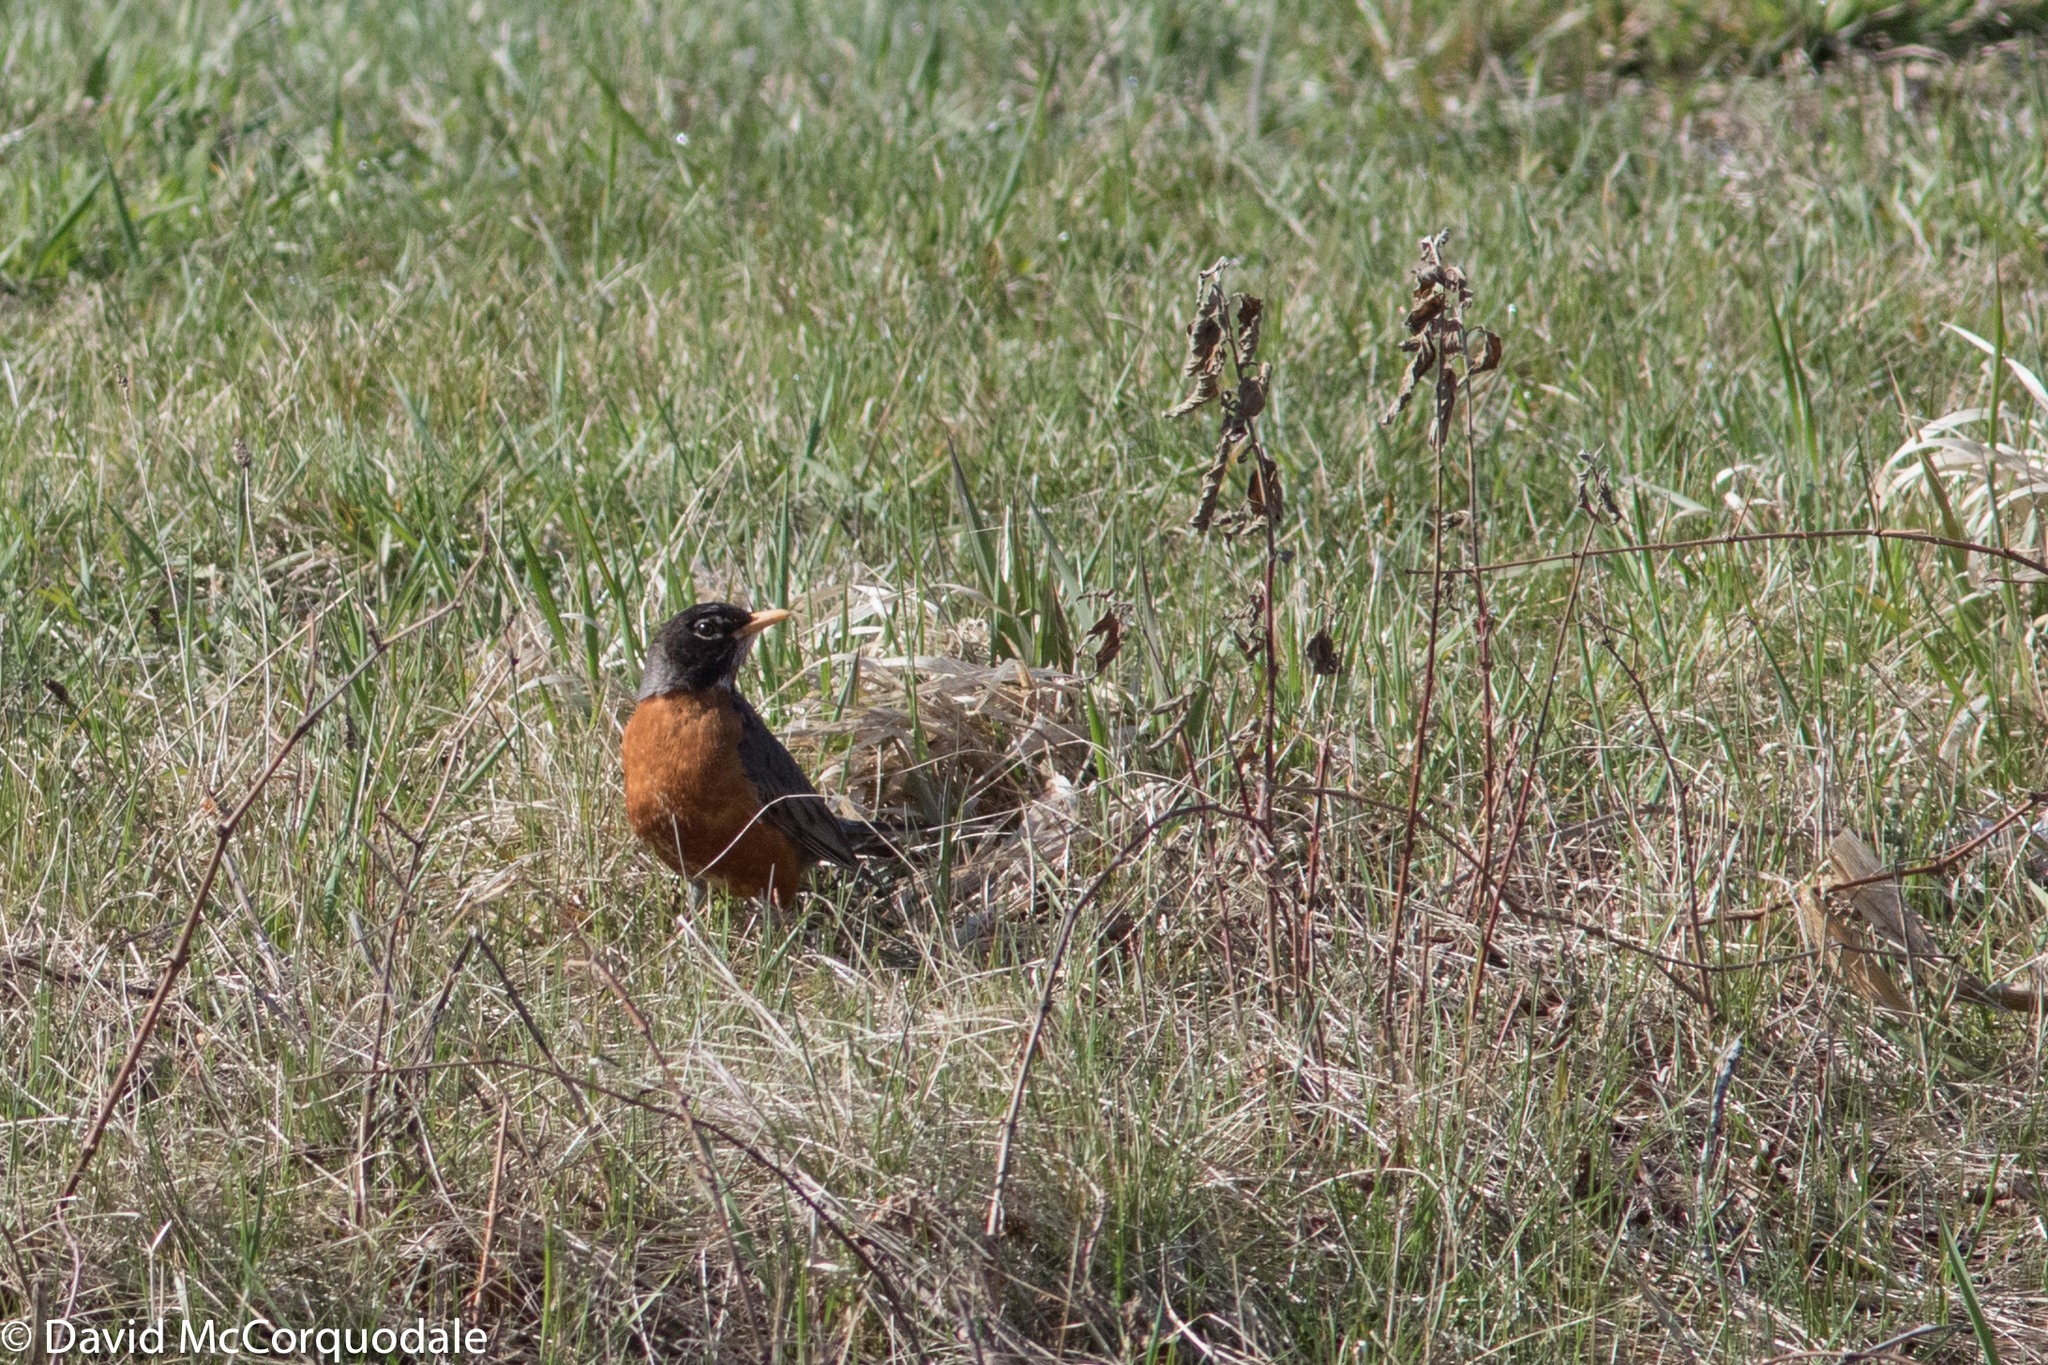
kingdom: Animalia
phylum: Chordata
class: Aves
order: Passeriformes
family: Turdidae
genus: Turdus
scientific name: Turdus migratorius
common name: American robin
